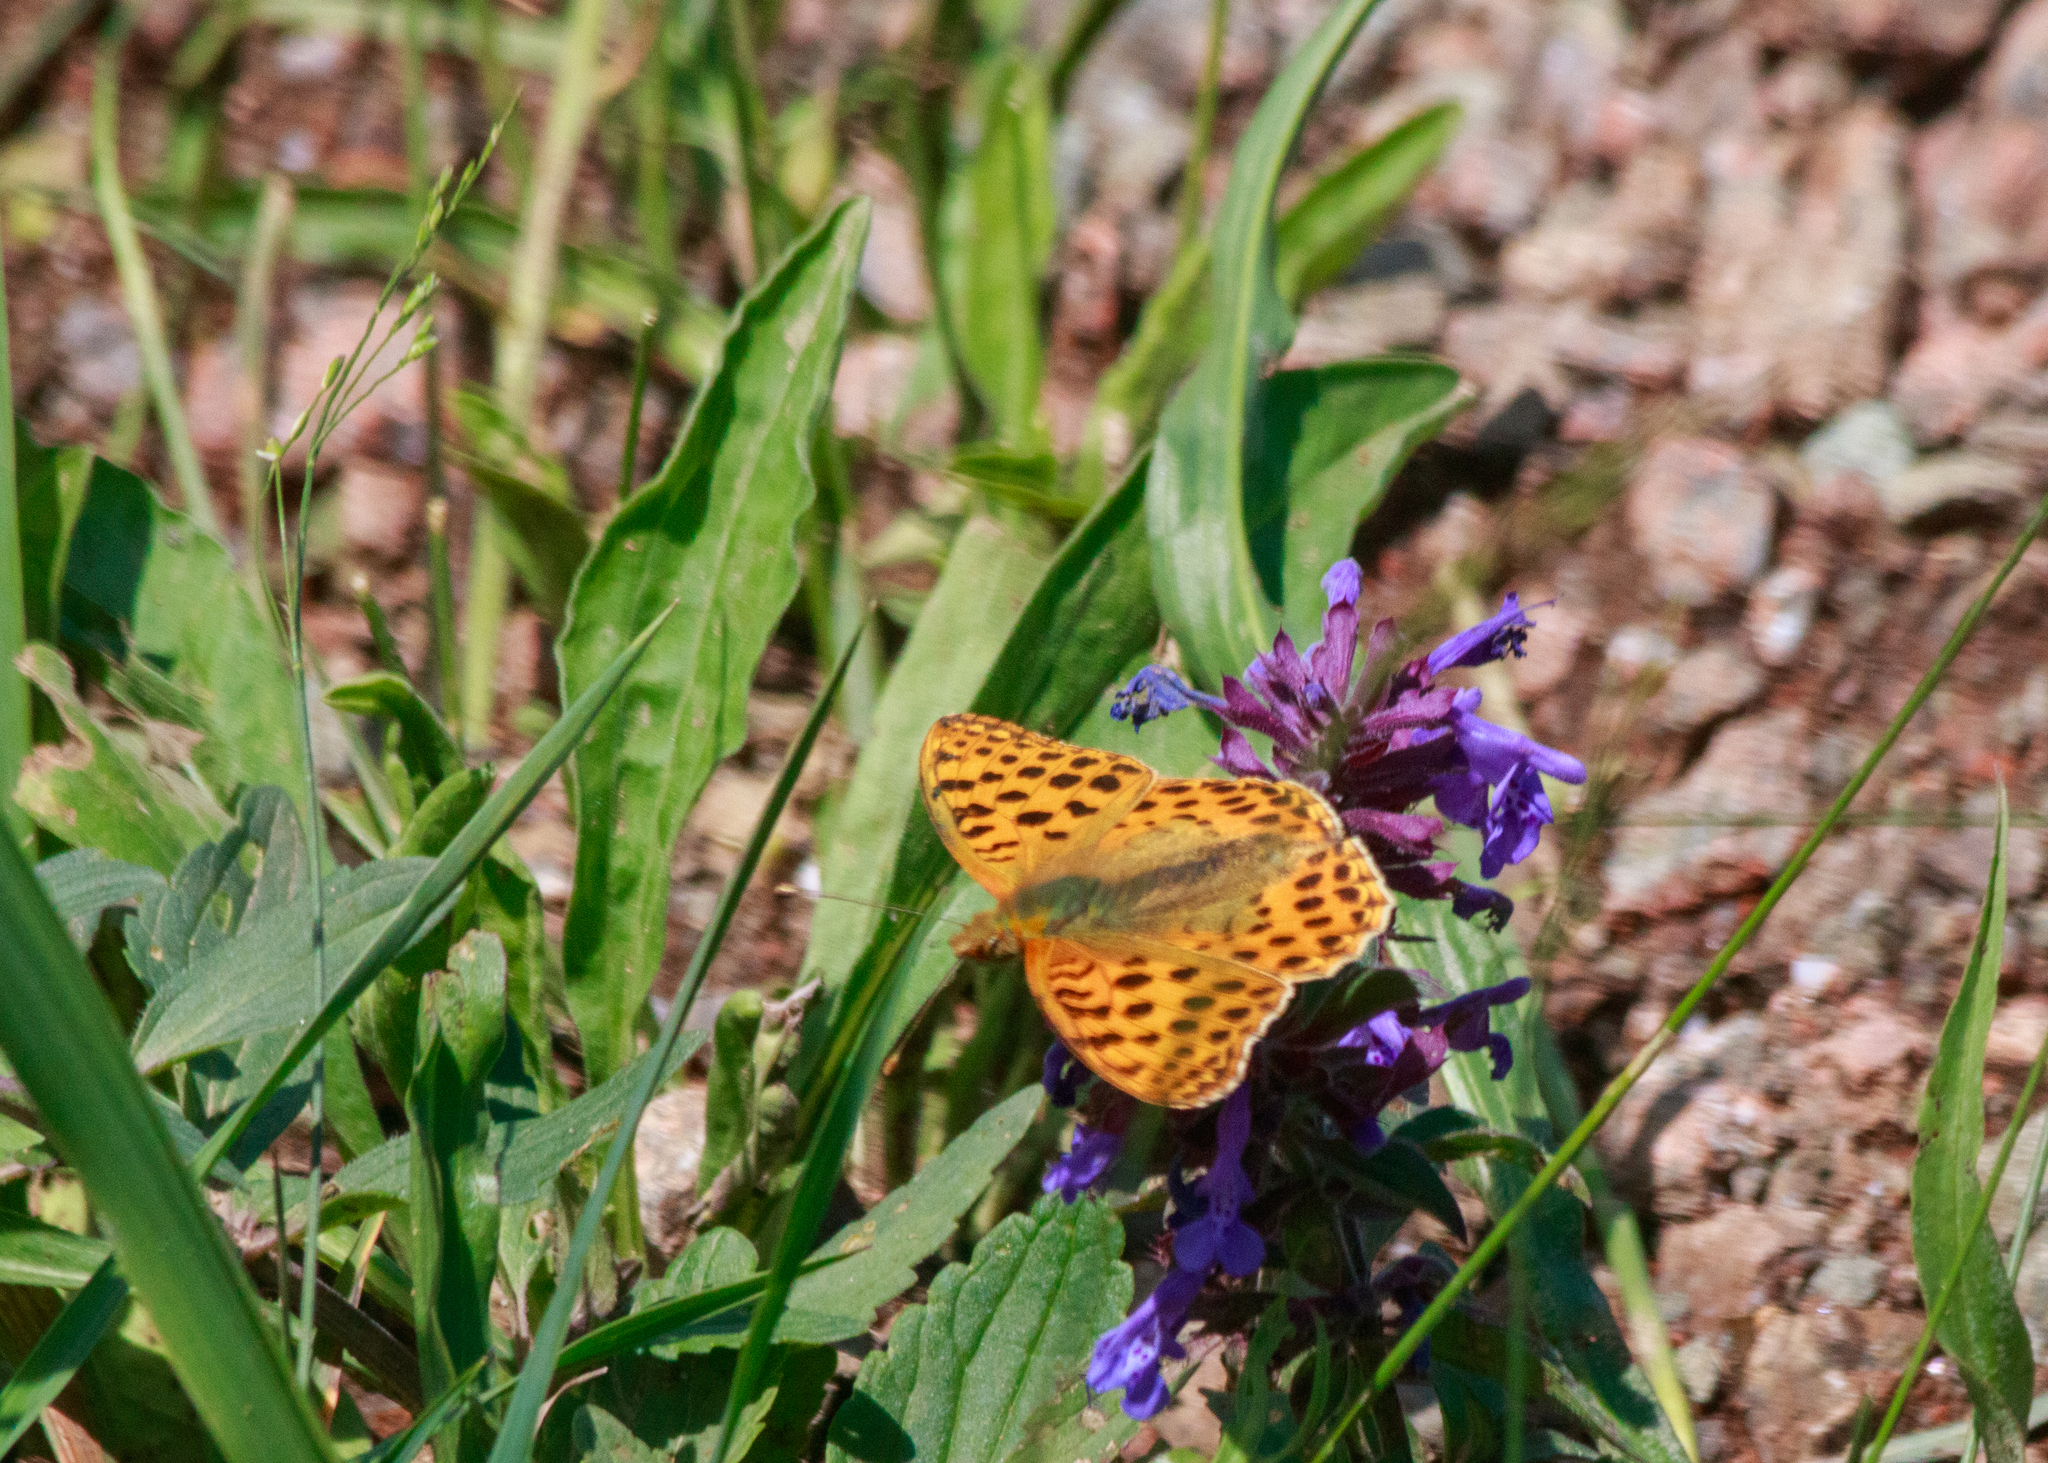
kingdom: Animalia
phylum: Arthropoda
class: Insecta
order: Lepidoptera
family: Nymphalidae
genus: Issoria
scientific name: Issoria lathonia
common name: Queen of spain fritillary
